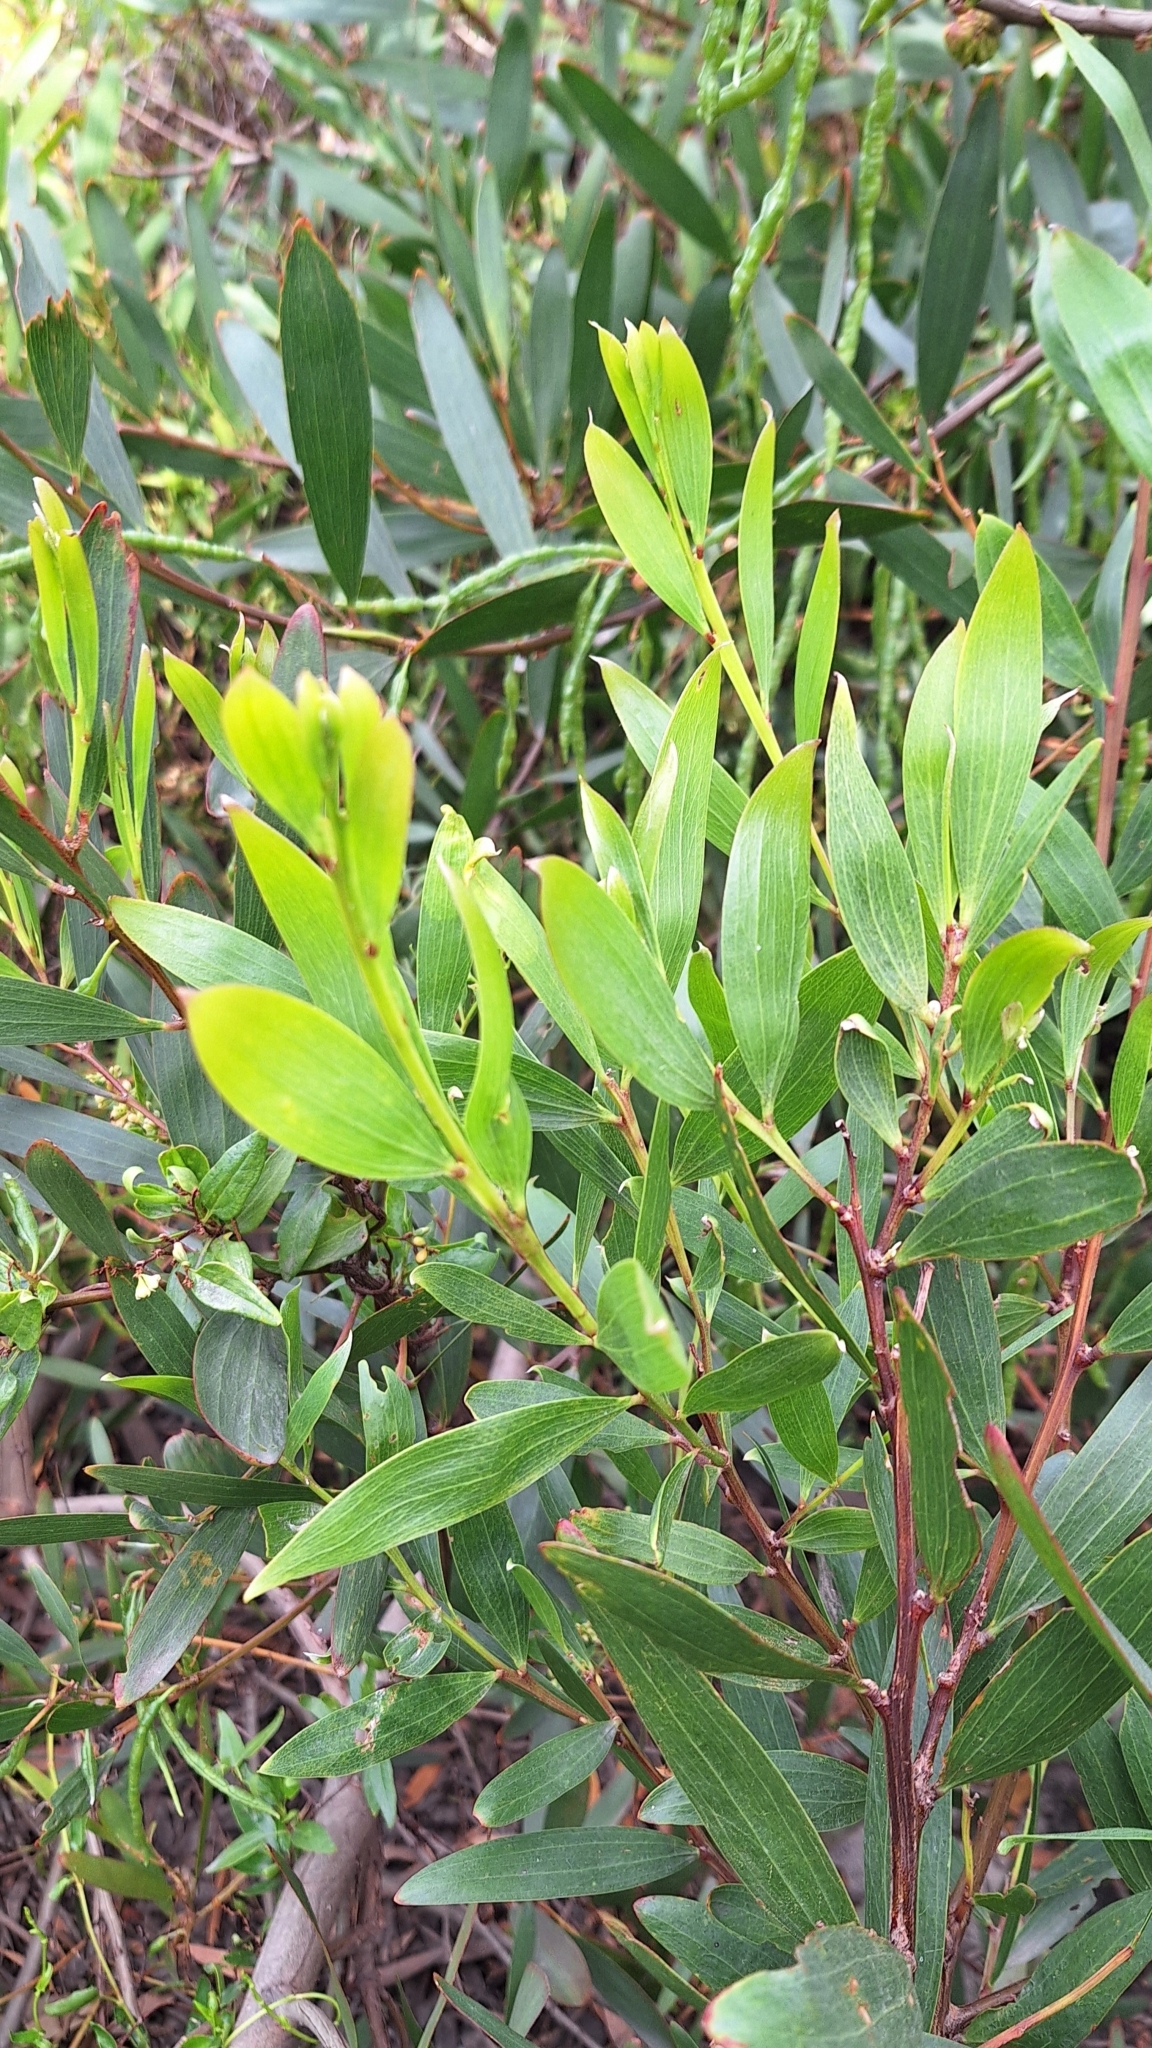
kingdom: Plantae
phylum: Tracheophyta
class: Magnoliopsida
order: Fabales
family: Fabaceae
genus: Acacia
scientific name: Acacia longifolia
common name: Sydney golden wattle
